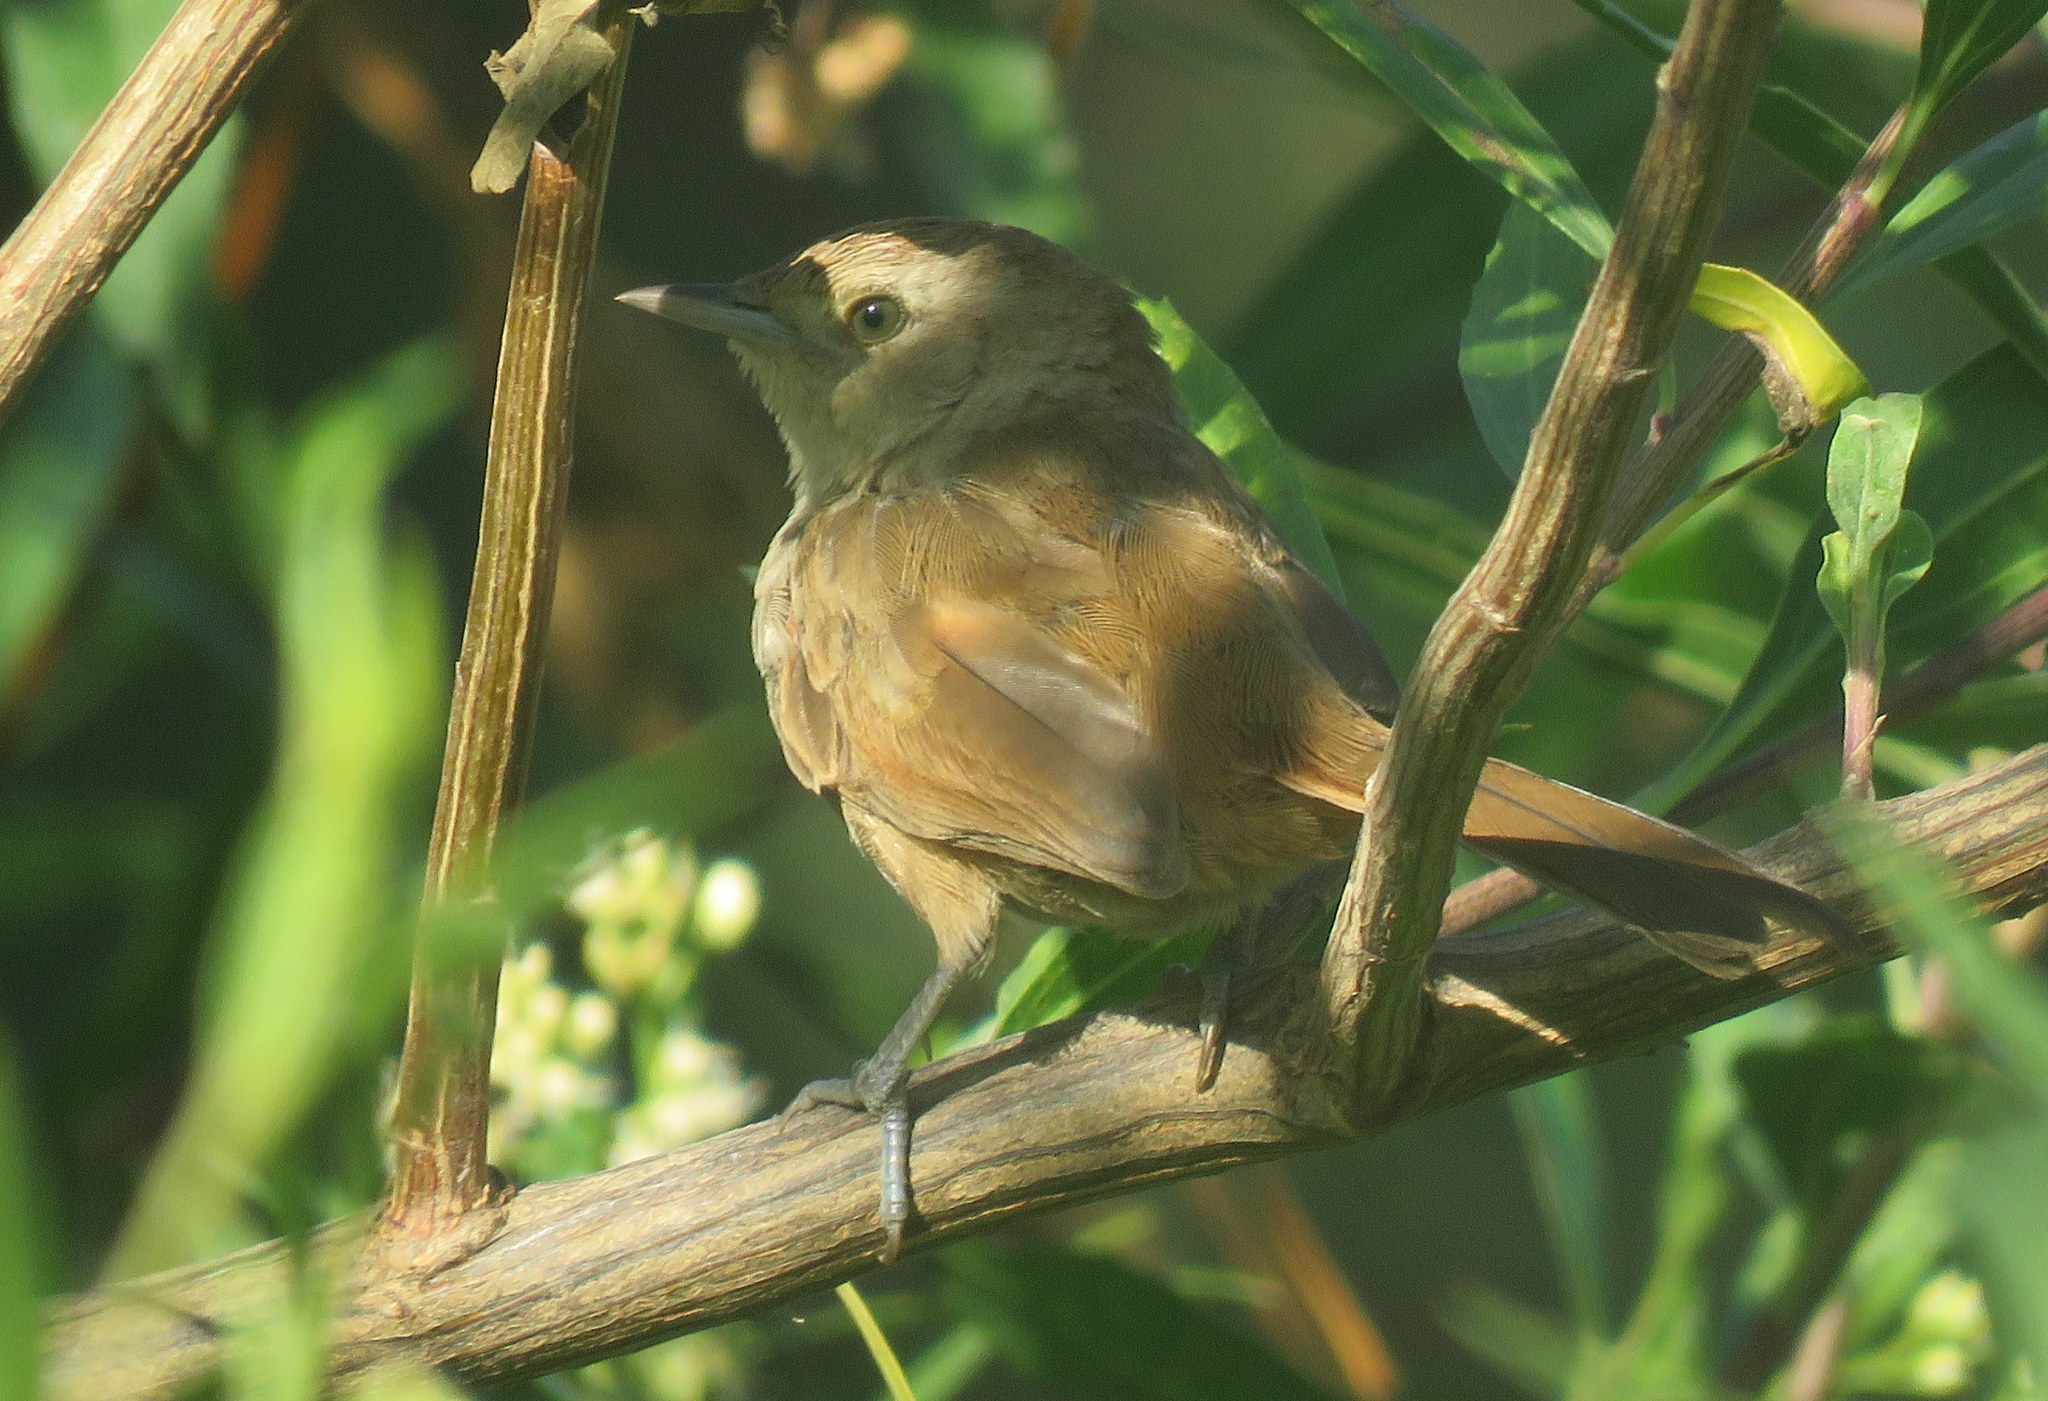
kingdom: Animalia
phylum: Chordata
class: Aves
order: Passeriformes
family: Furnariidae
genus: Phacellodomus
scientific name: Phacellodomus sibilatrix
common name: Little thornbird
